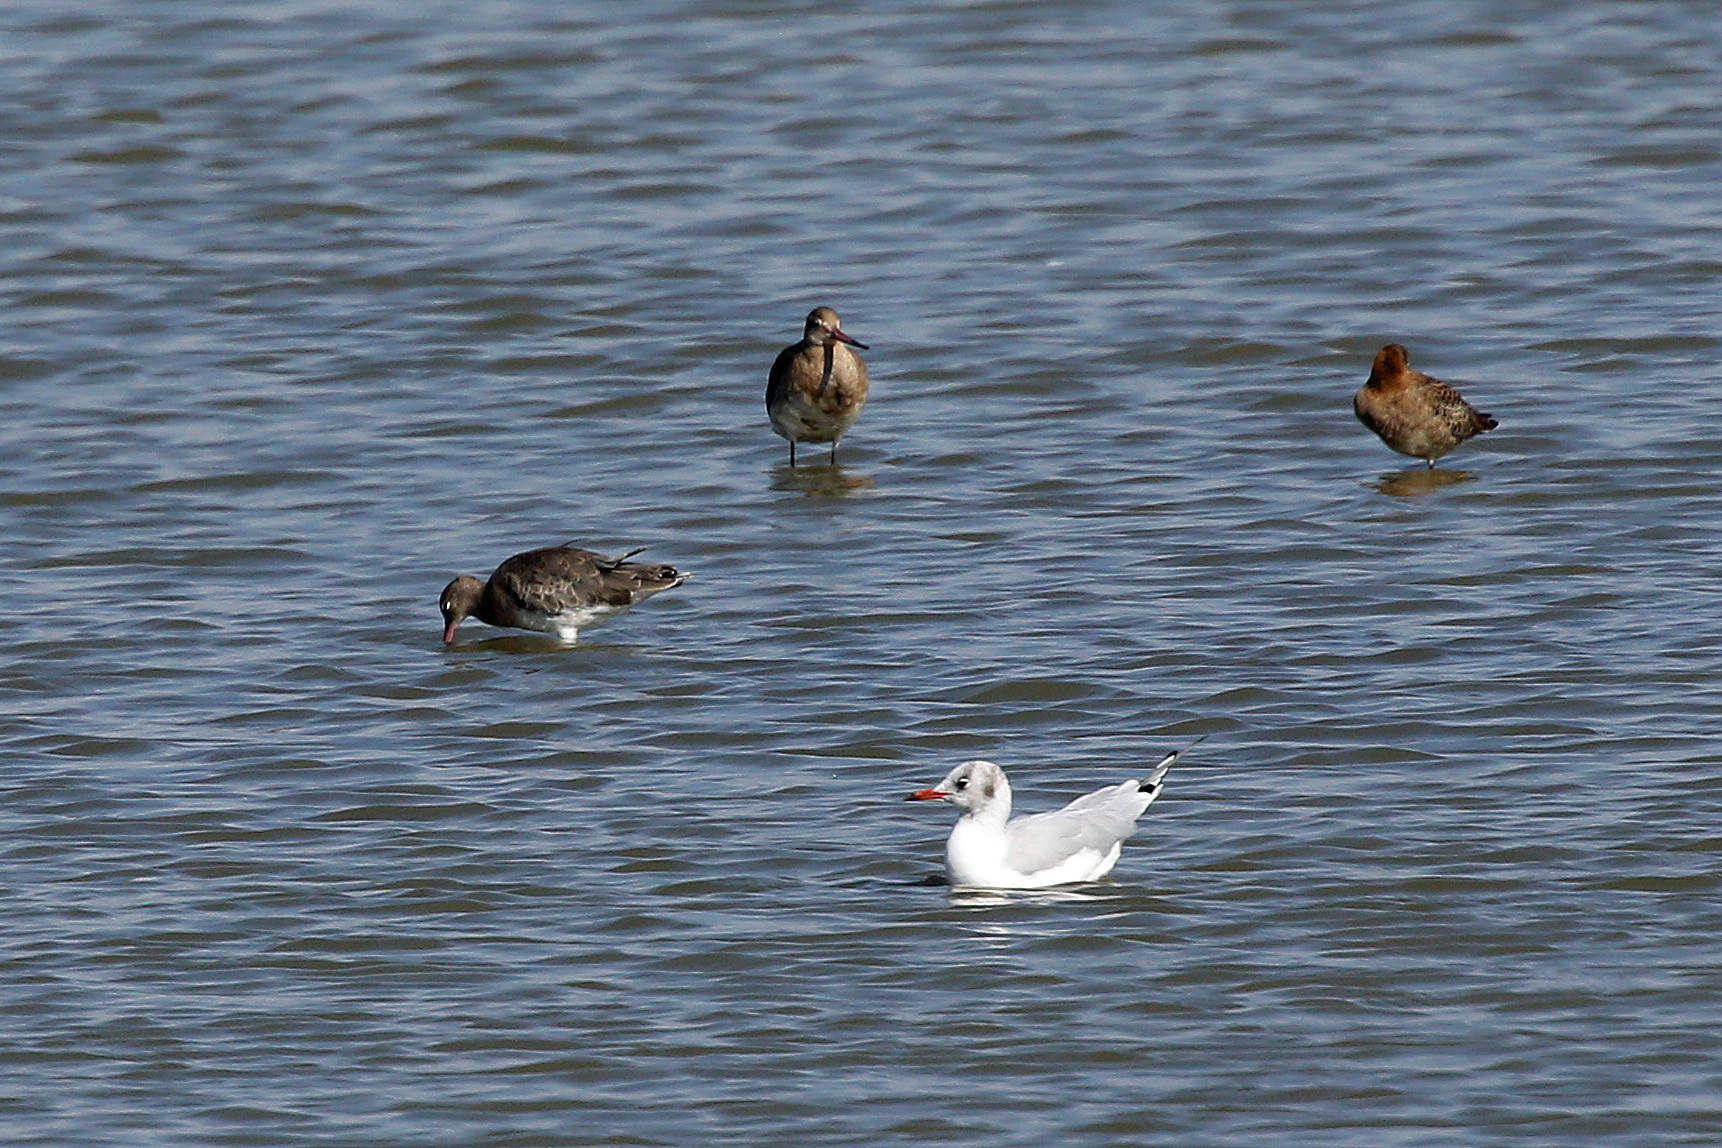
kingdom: Animalia
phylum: Chordata
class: Aves
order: Charadriiformes
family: Scolopacidae
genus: Limosa
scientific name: Limosa limosa
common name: Black-tailed godwit
